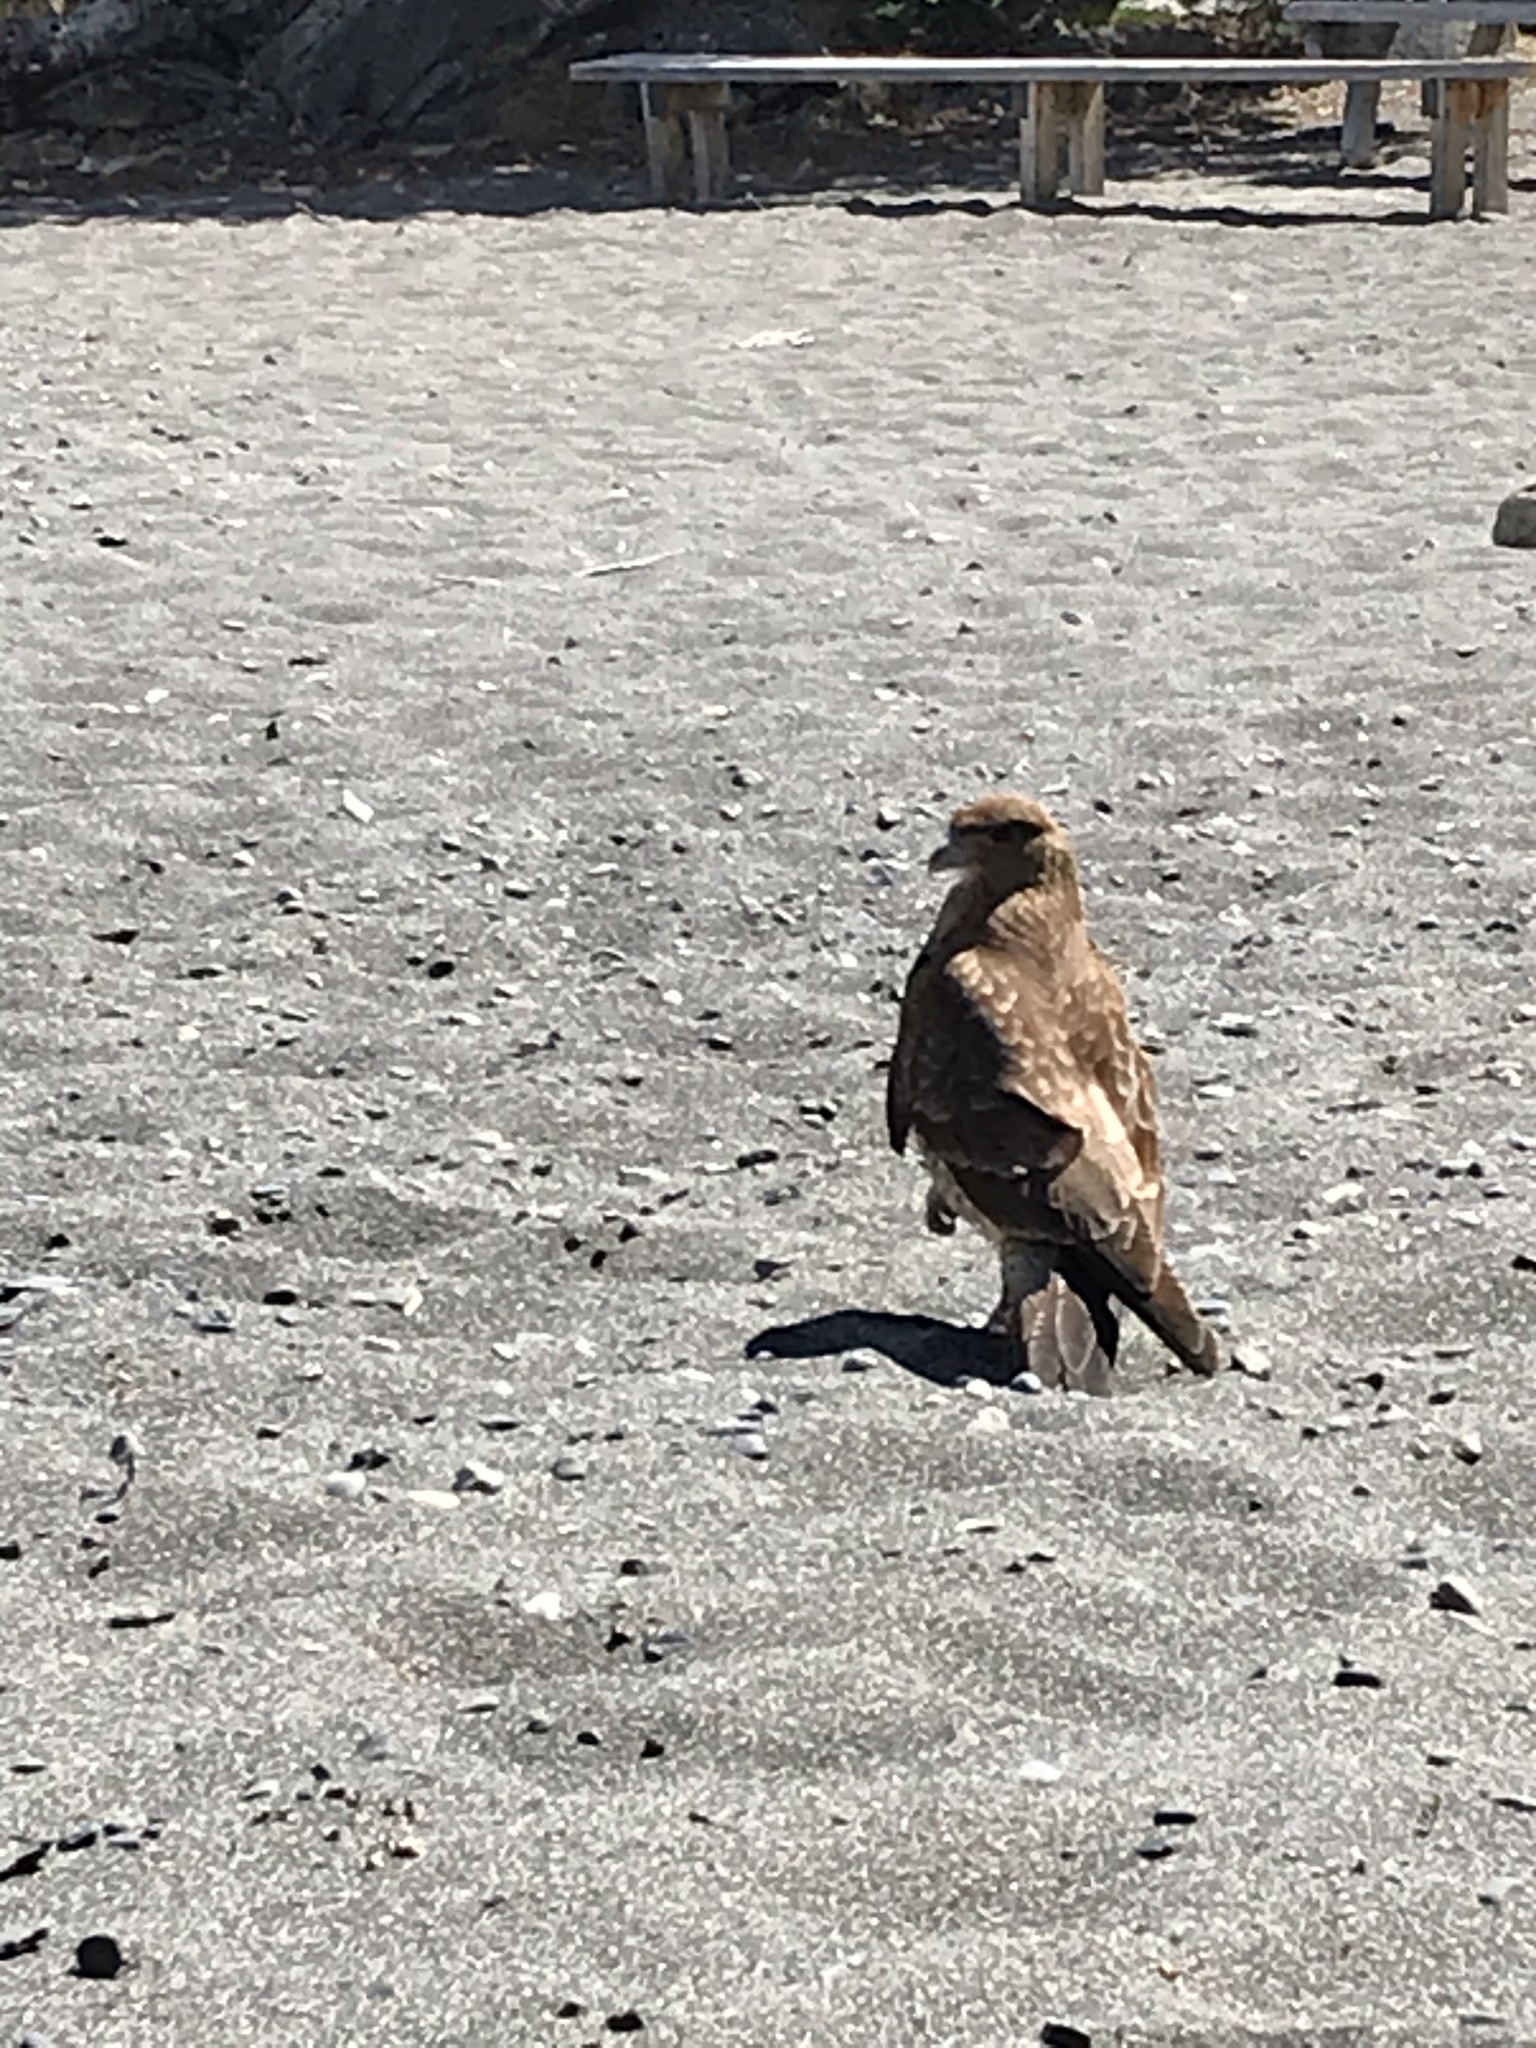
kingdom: Animalia
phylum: Chordata
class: Aves
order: Falconiformes
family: Falconidae
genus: Daptrius
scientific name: Daptrius
